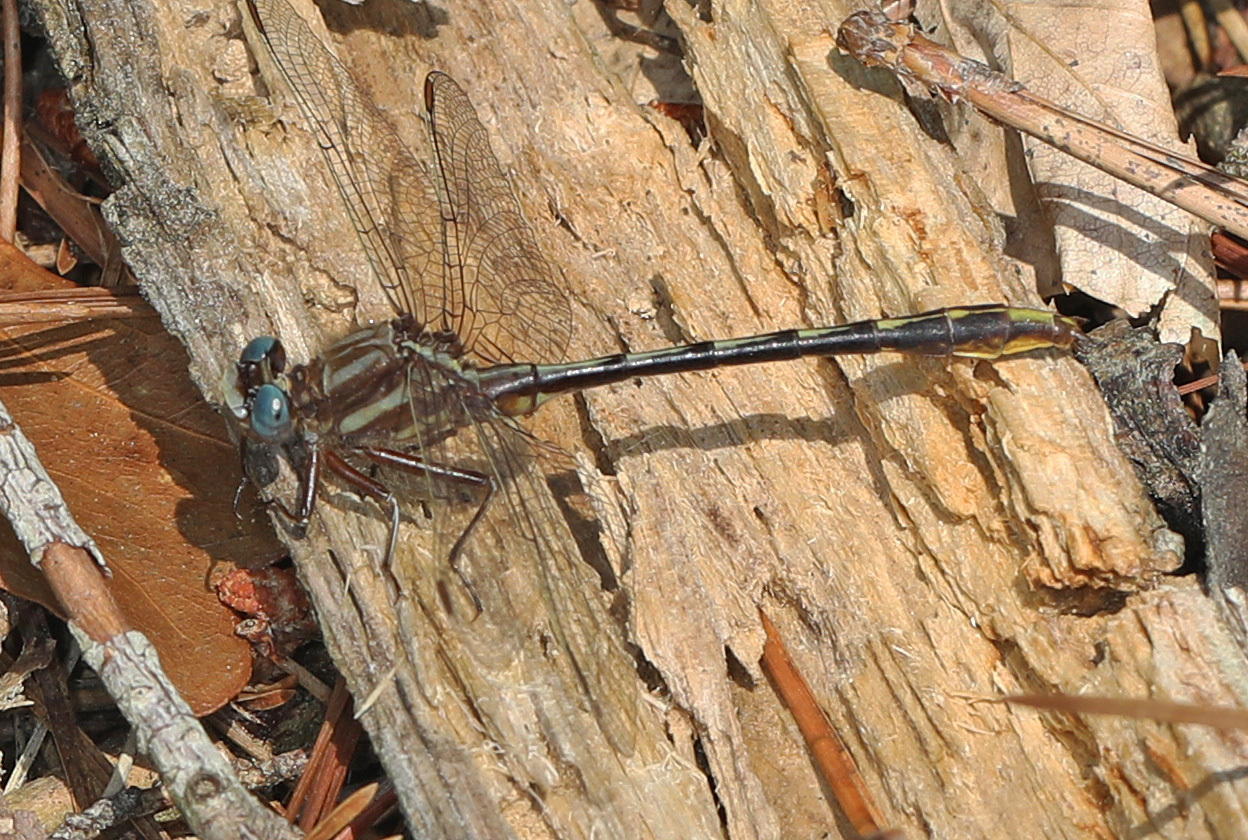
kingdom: Animalia
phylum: Arthropoda
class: Insecta
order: Odonata
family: Gomphidae
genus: Phanogomphus
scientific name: Phanogomphus exilis
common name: Lancet clubtail
